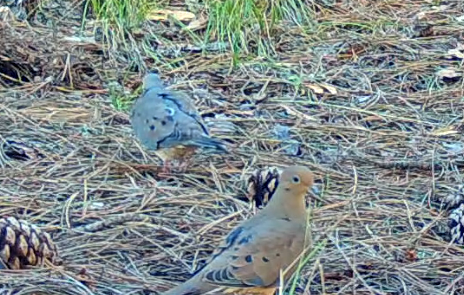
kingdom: Animalia
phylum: Chordata
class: Aves
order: Columbiformes
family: Columbidae
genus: Zenaida
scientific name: Zenaida macroura
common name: Mourning dove
